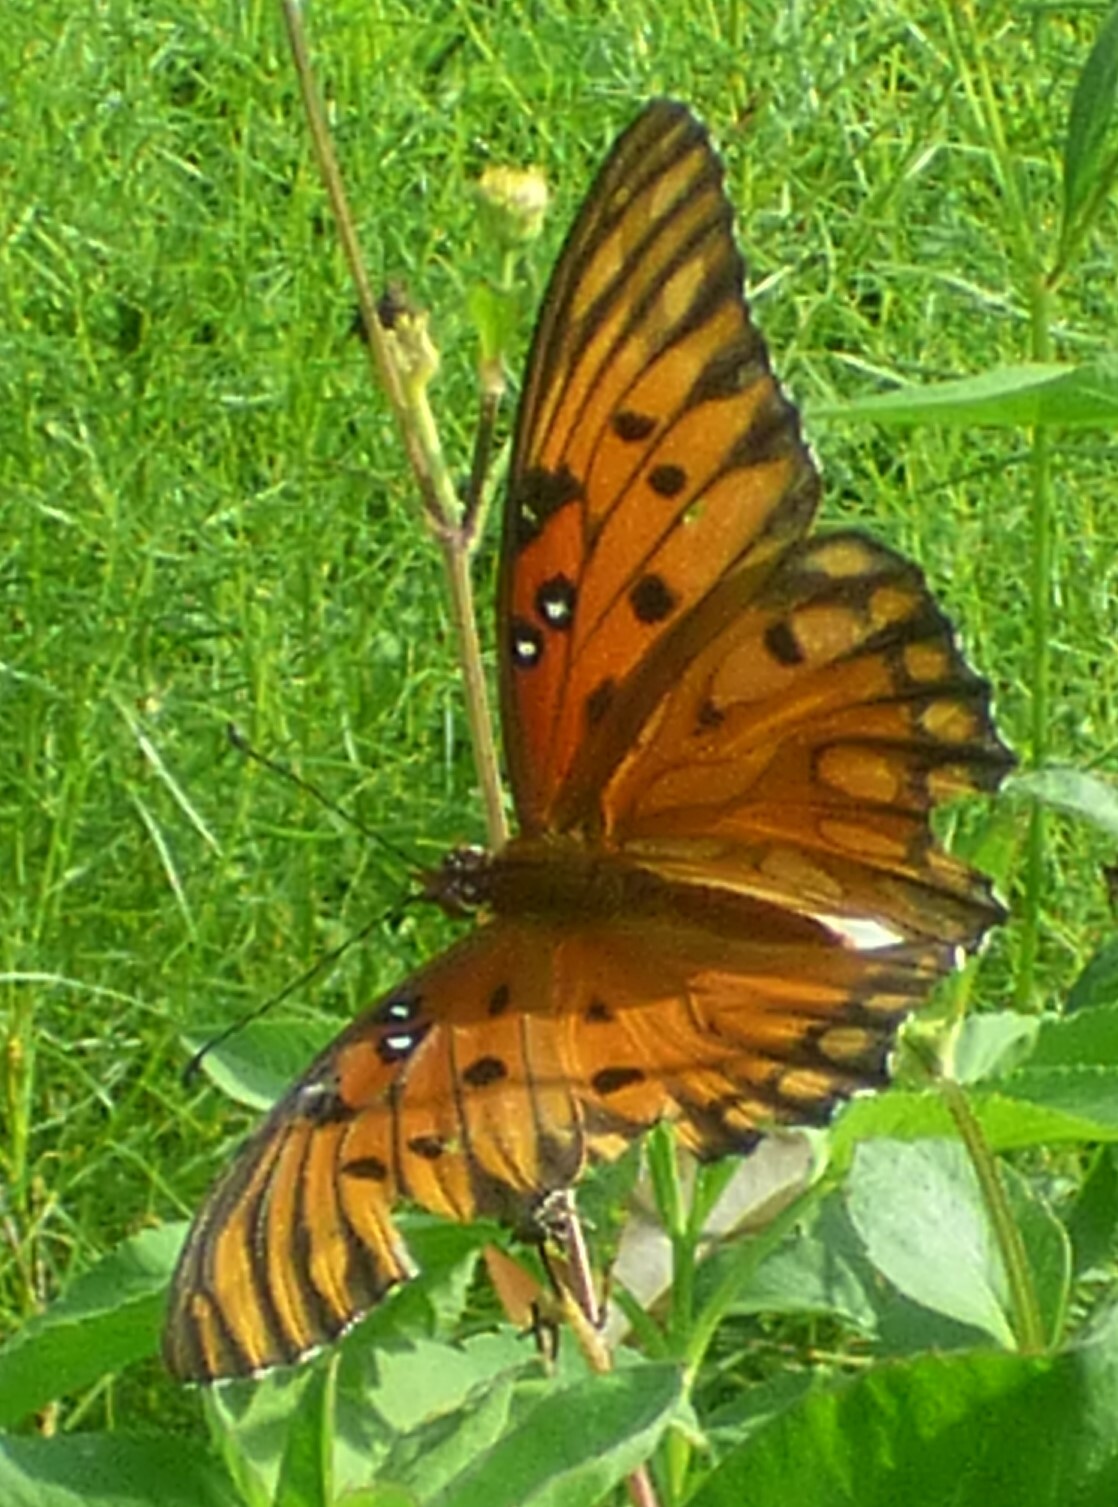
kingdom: Animalia
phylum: Arthropoda
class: Insecta
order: Lepidoptera
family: Nymphalidae
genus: Dione
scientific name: Dione vanillae
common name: Gulf fritillary
